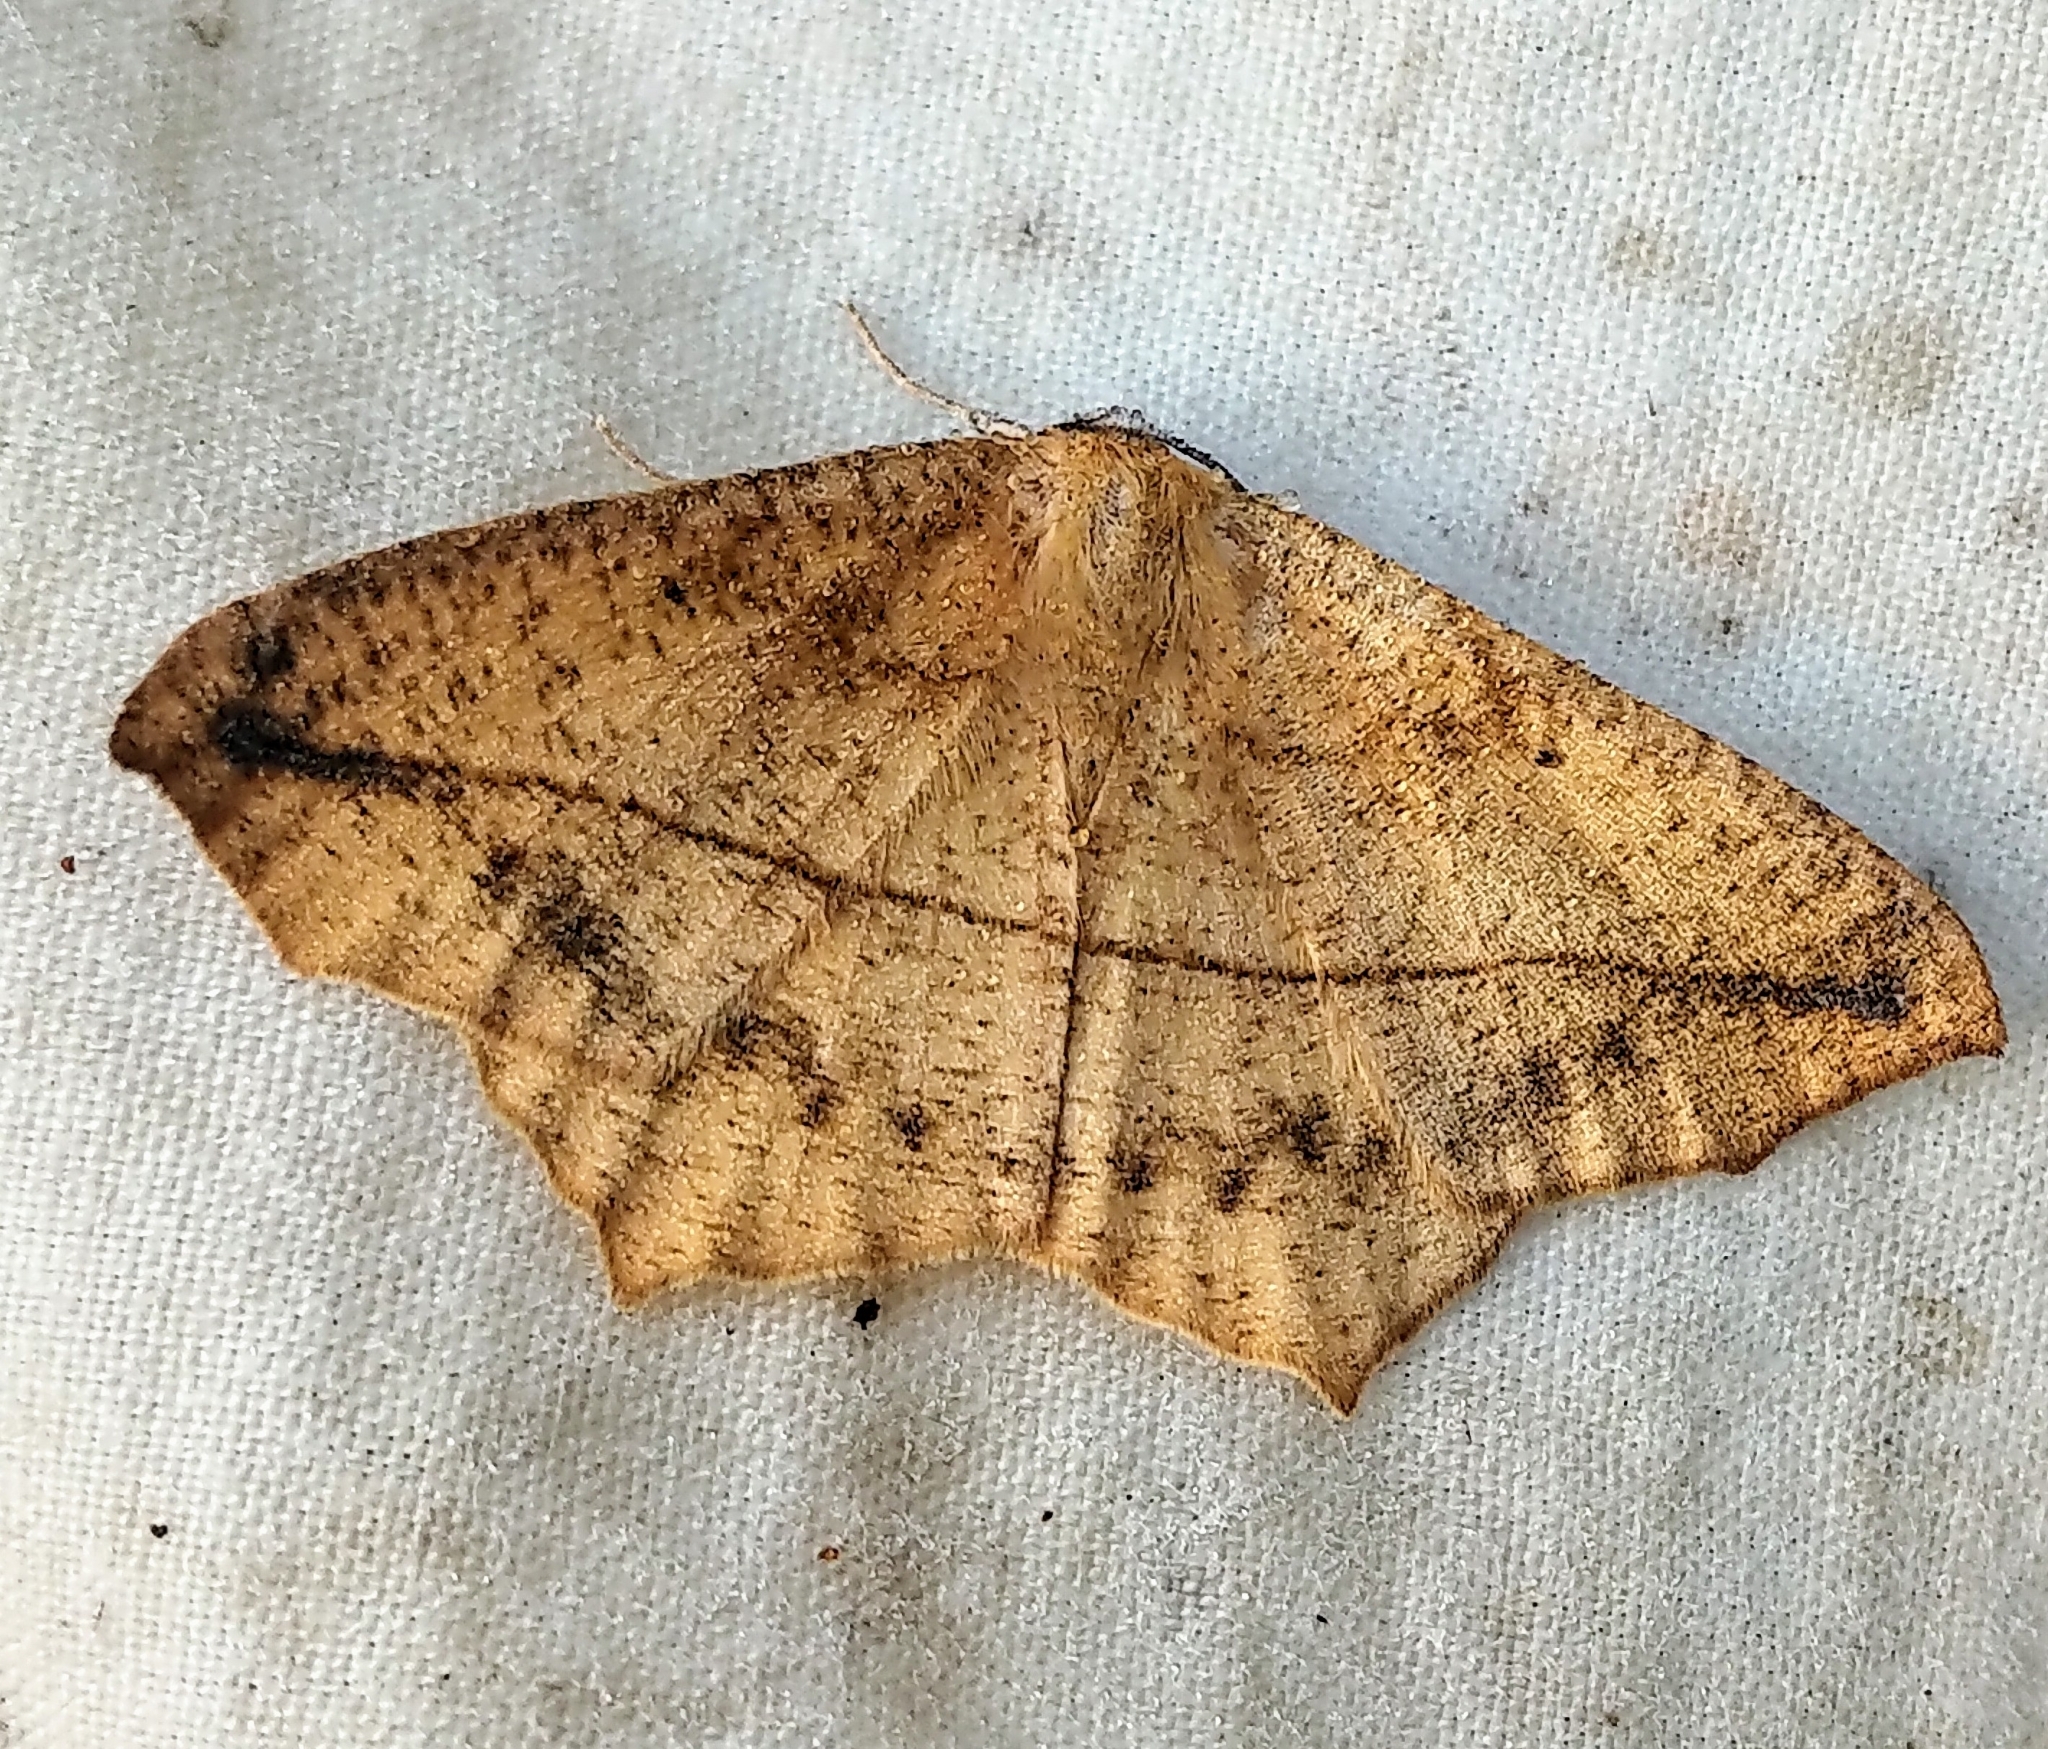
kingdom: Animalia
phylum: Arthropoda
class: Insecta
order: Lepidoptera
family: Geometridae
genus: Prochoerodes
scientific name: Prochoerodes lineola
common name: Large maple spanworm
